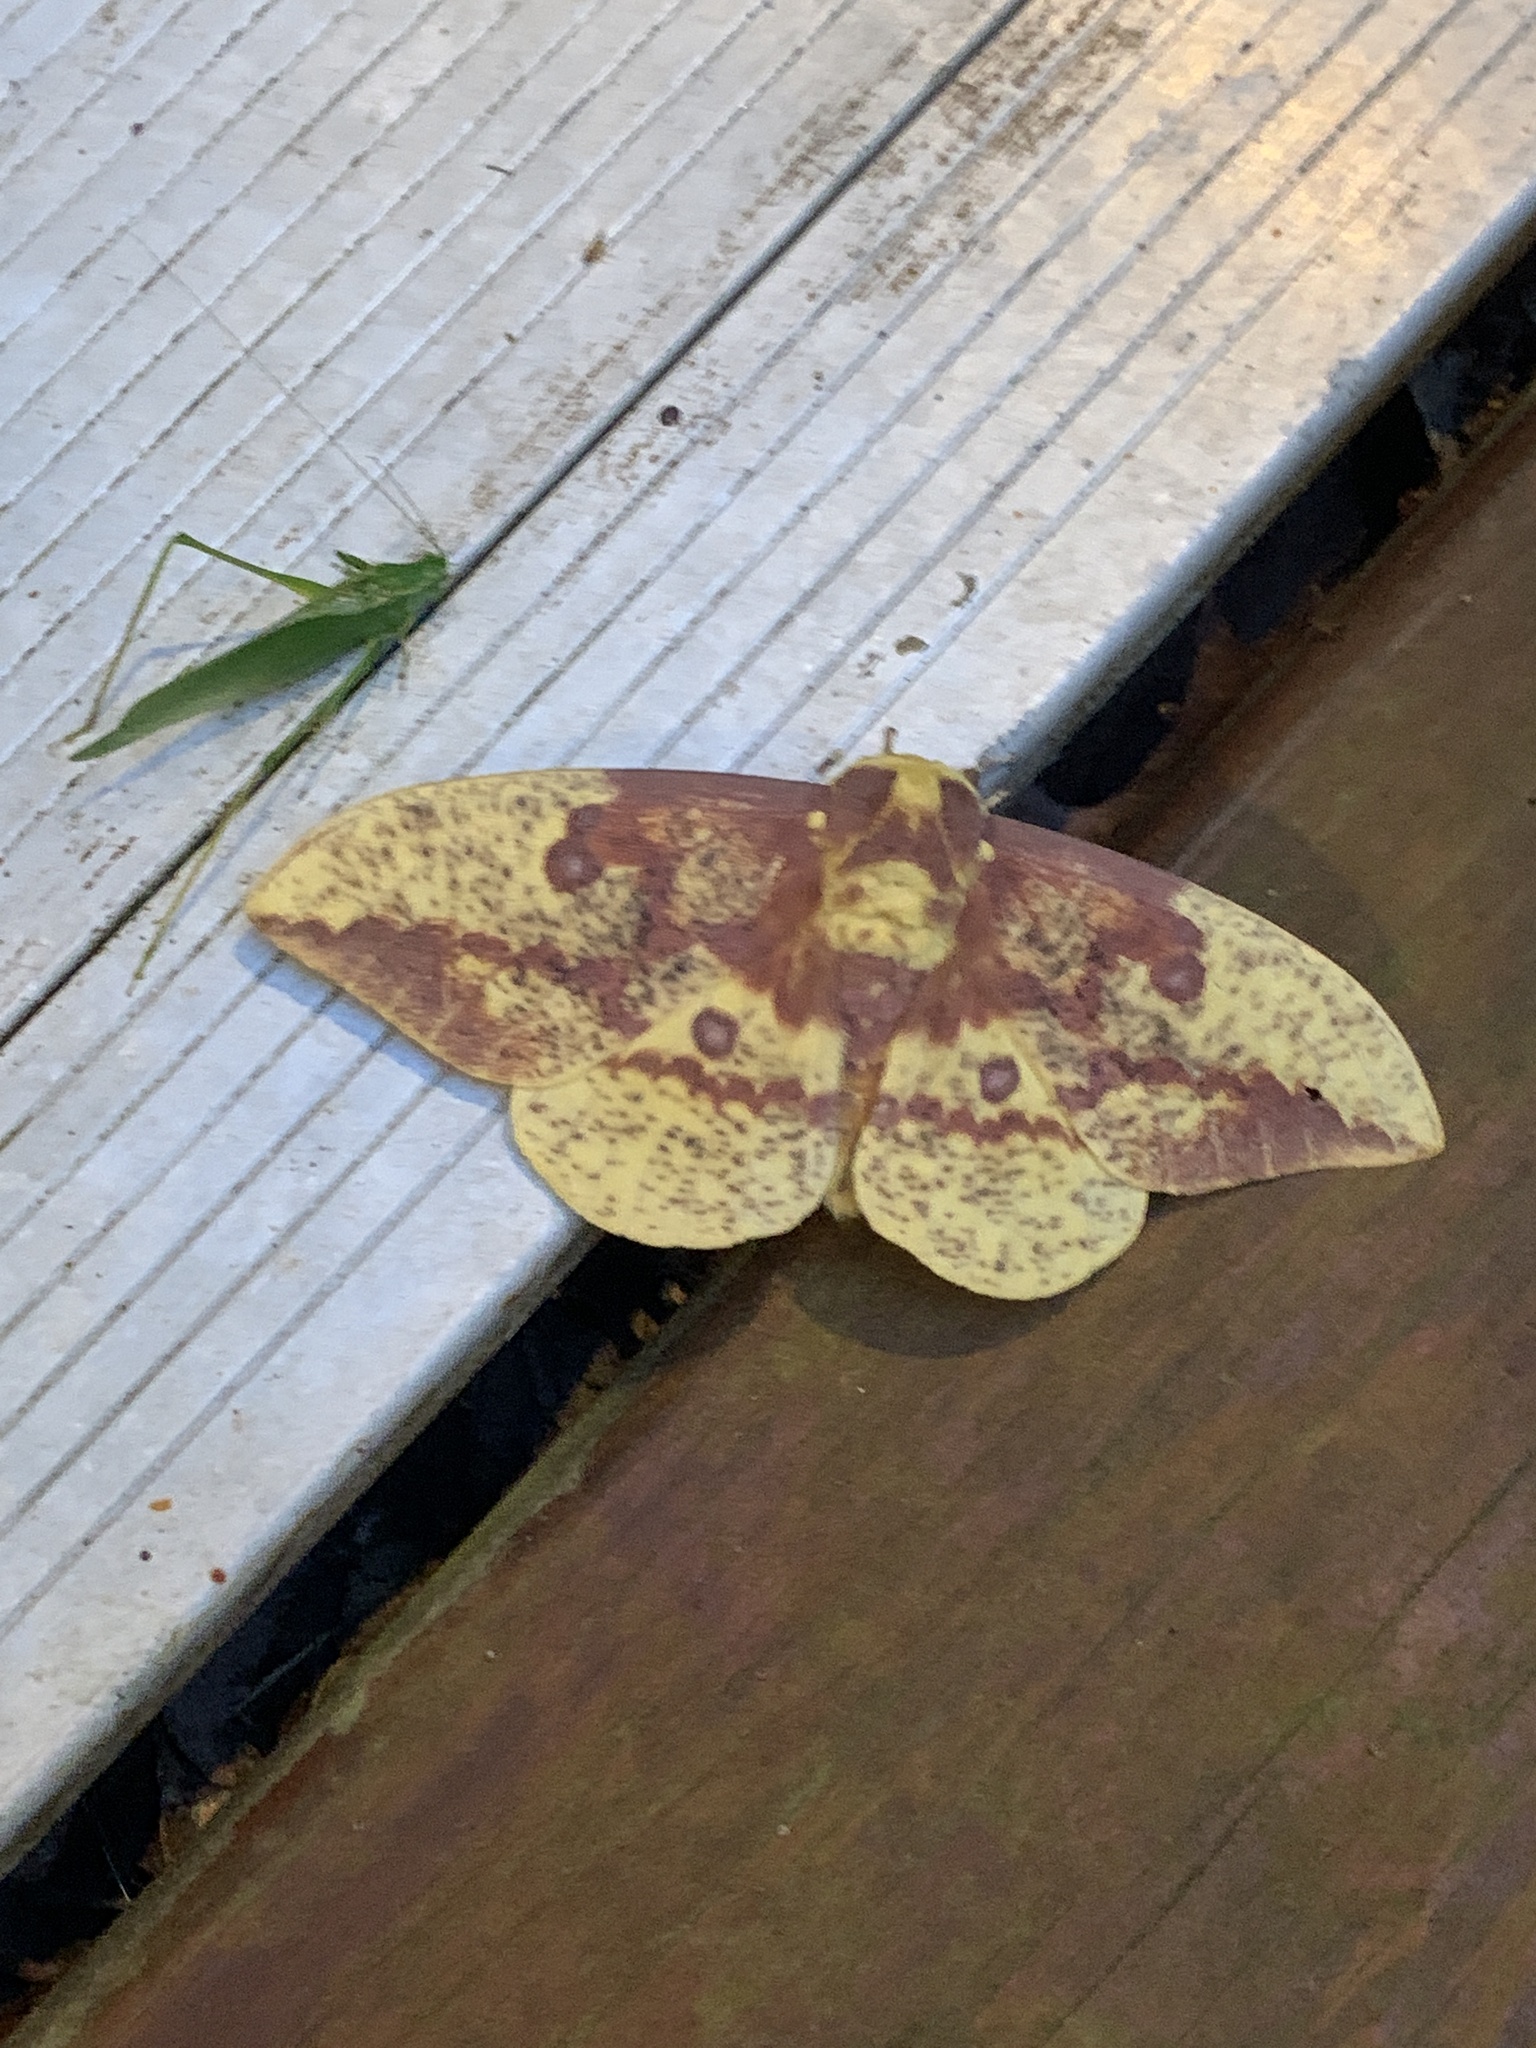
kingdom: Animalia
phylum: Arthropoda
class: Insecta
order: Lepidoptera
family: Saturniidae
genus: Eacles
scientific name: Eacles imperialis
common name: Imperial moth
